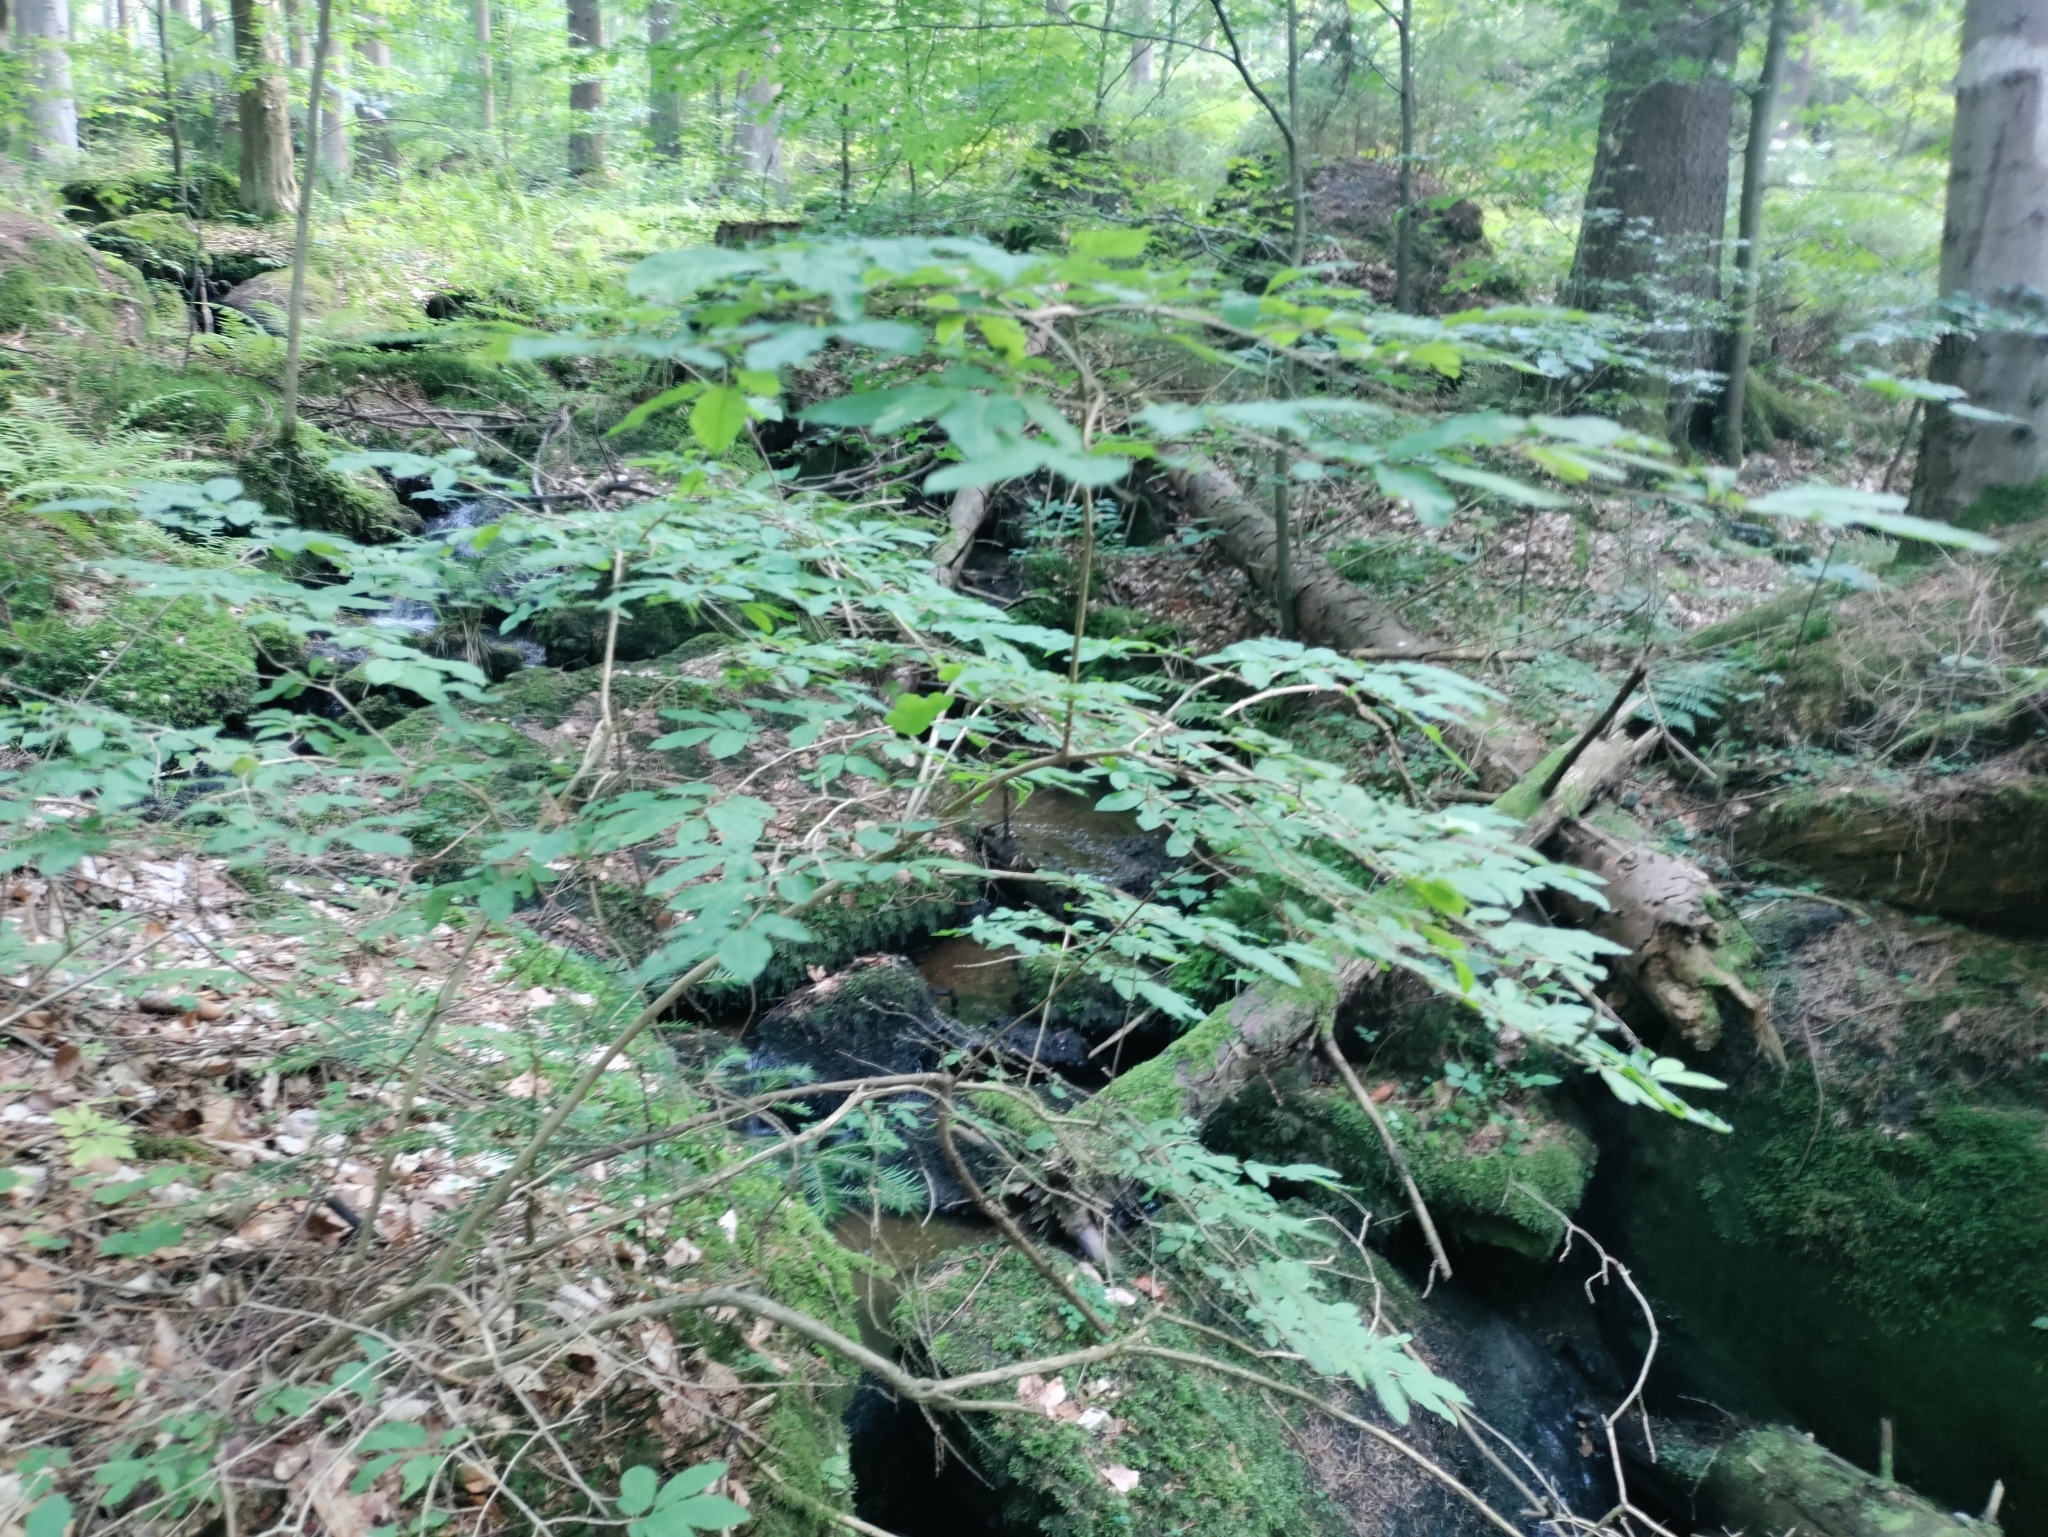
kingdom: Plantae
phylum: Tracheophyta
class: Magnoliopsida
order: Dipsacales
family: Caprifoliaceae
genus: Lonicera
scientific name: Lonicera nigra
